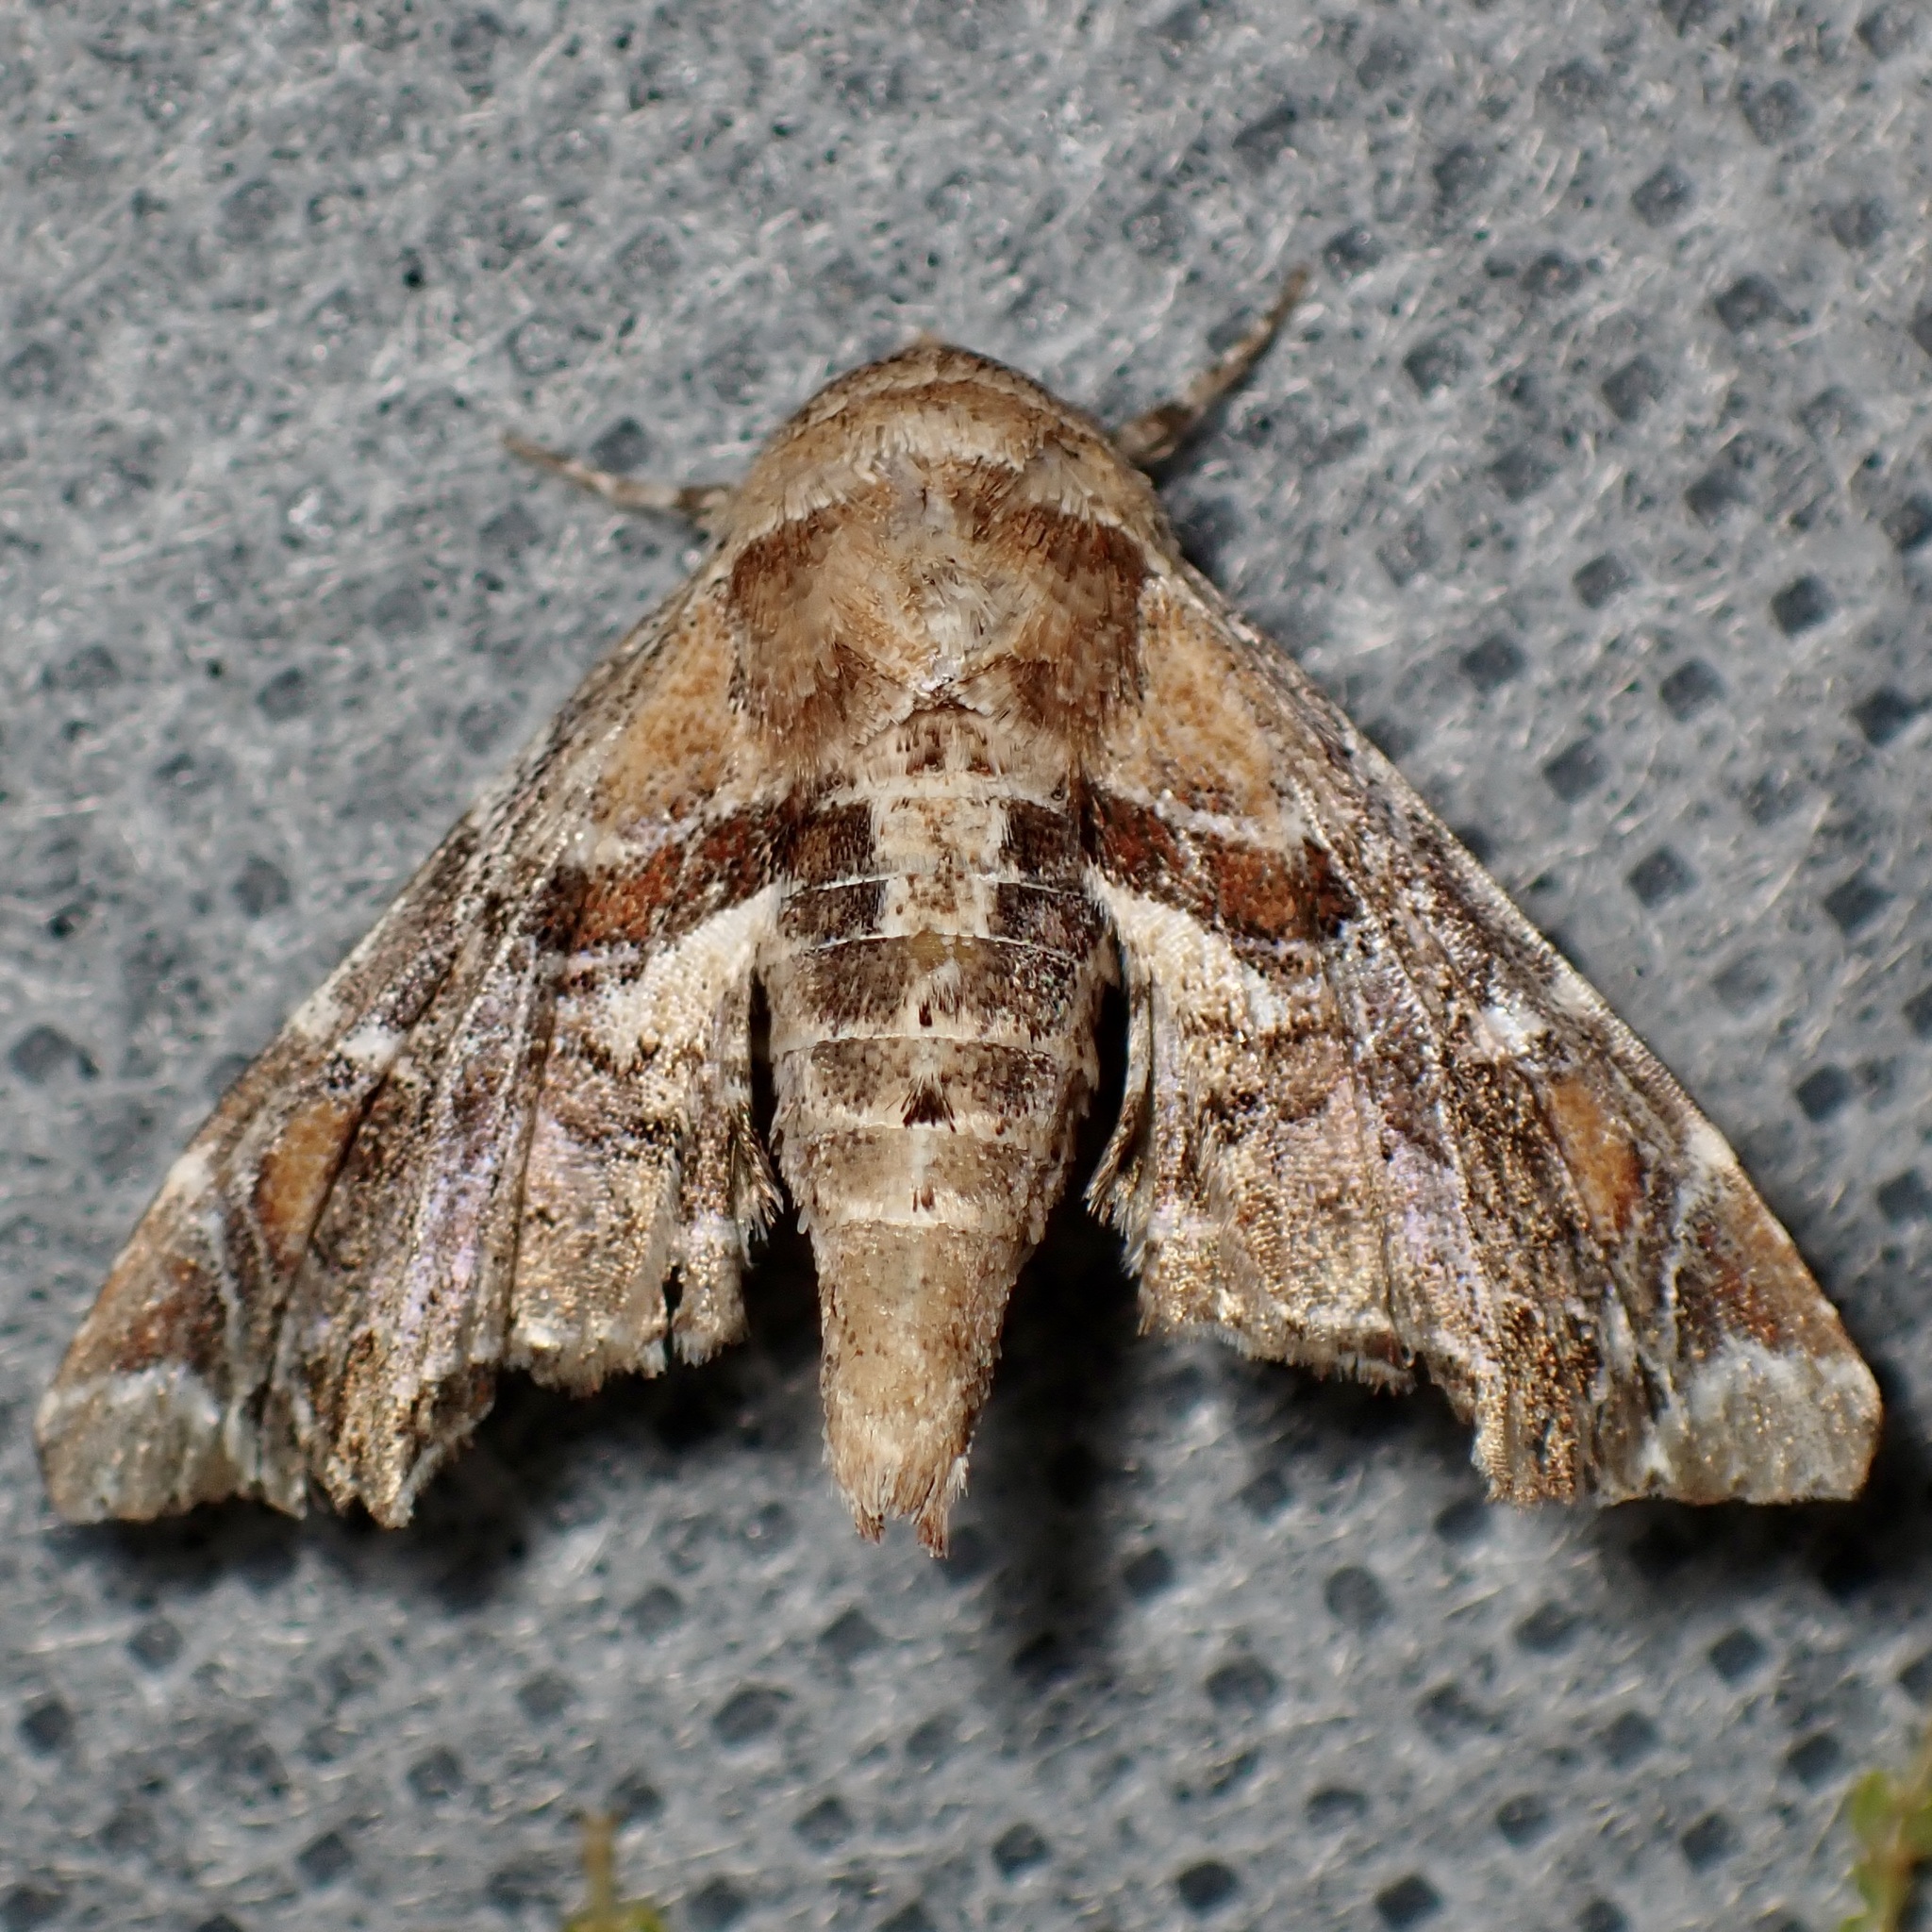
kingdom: Animalia
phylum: Arthropoda
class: Insecta
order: Lepidoptera
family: Euteliidae
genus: Eutelia
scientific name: Eutelia furcata
